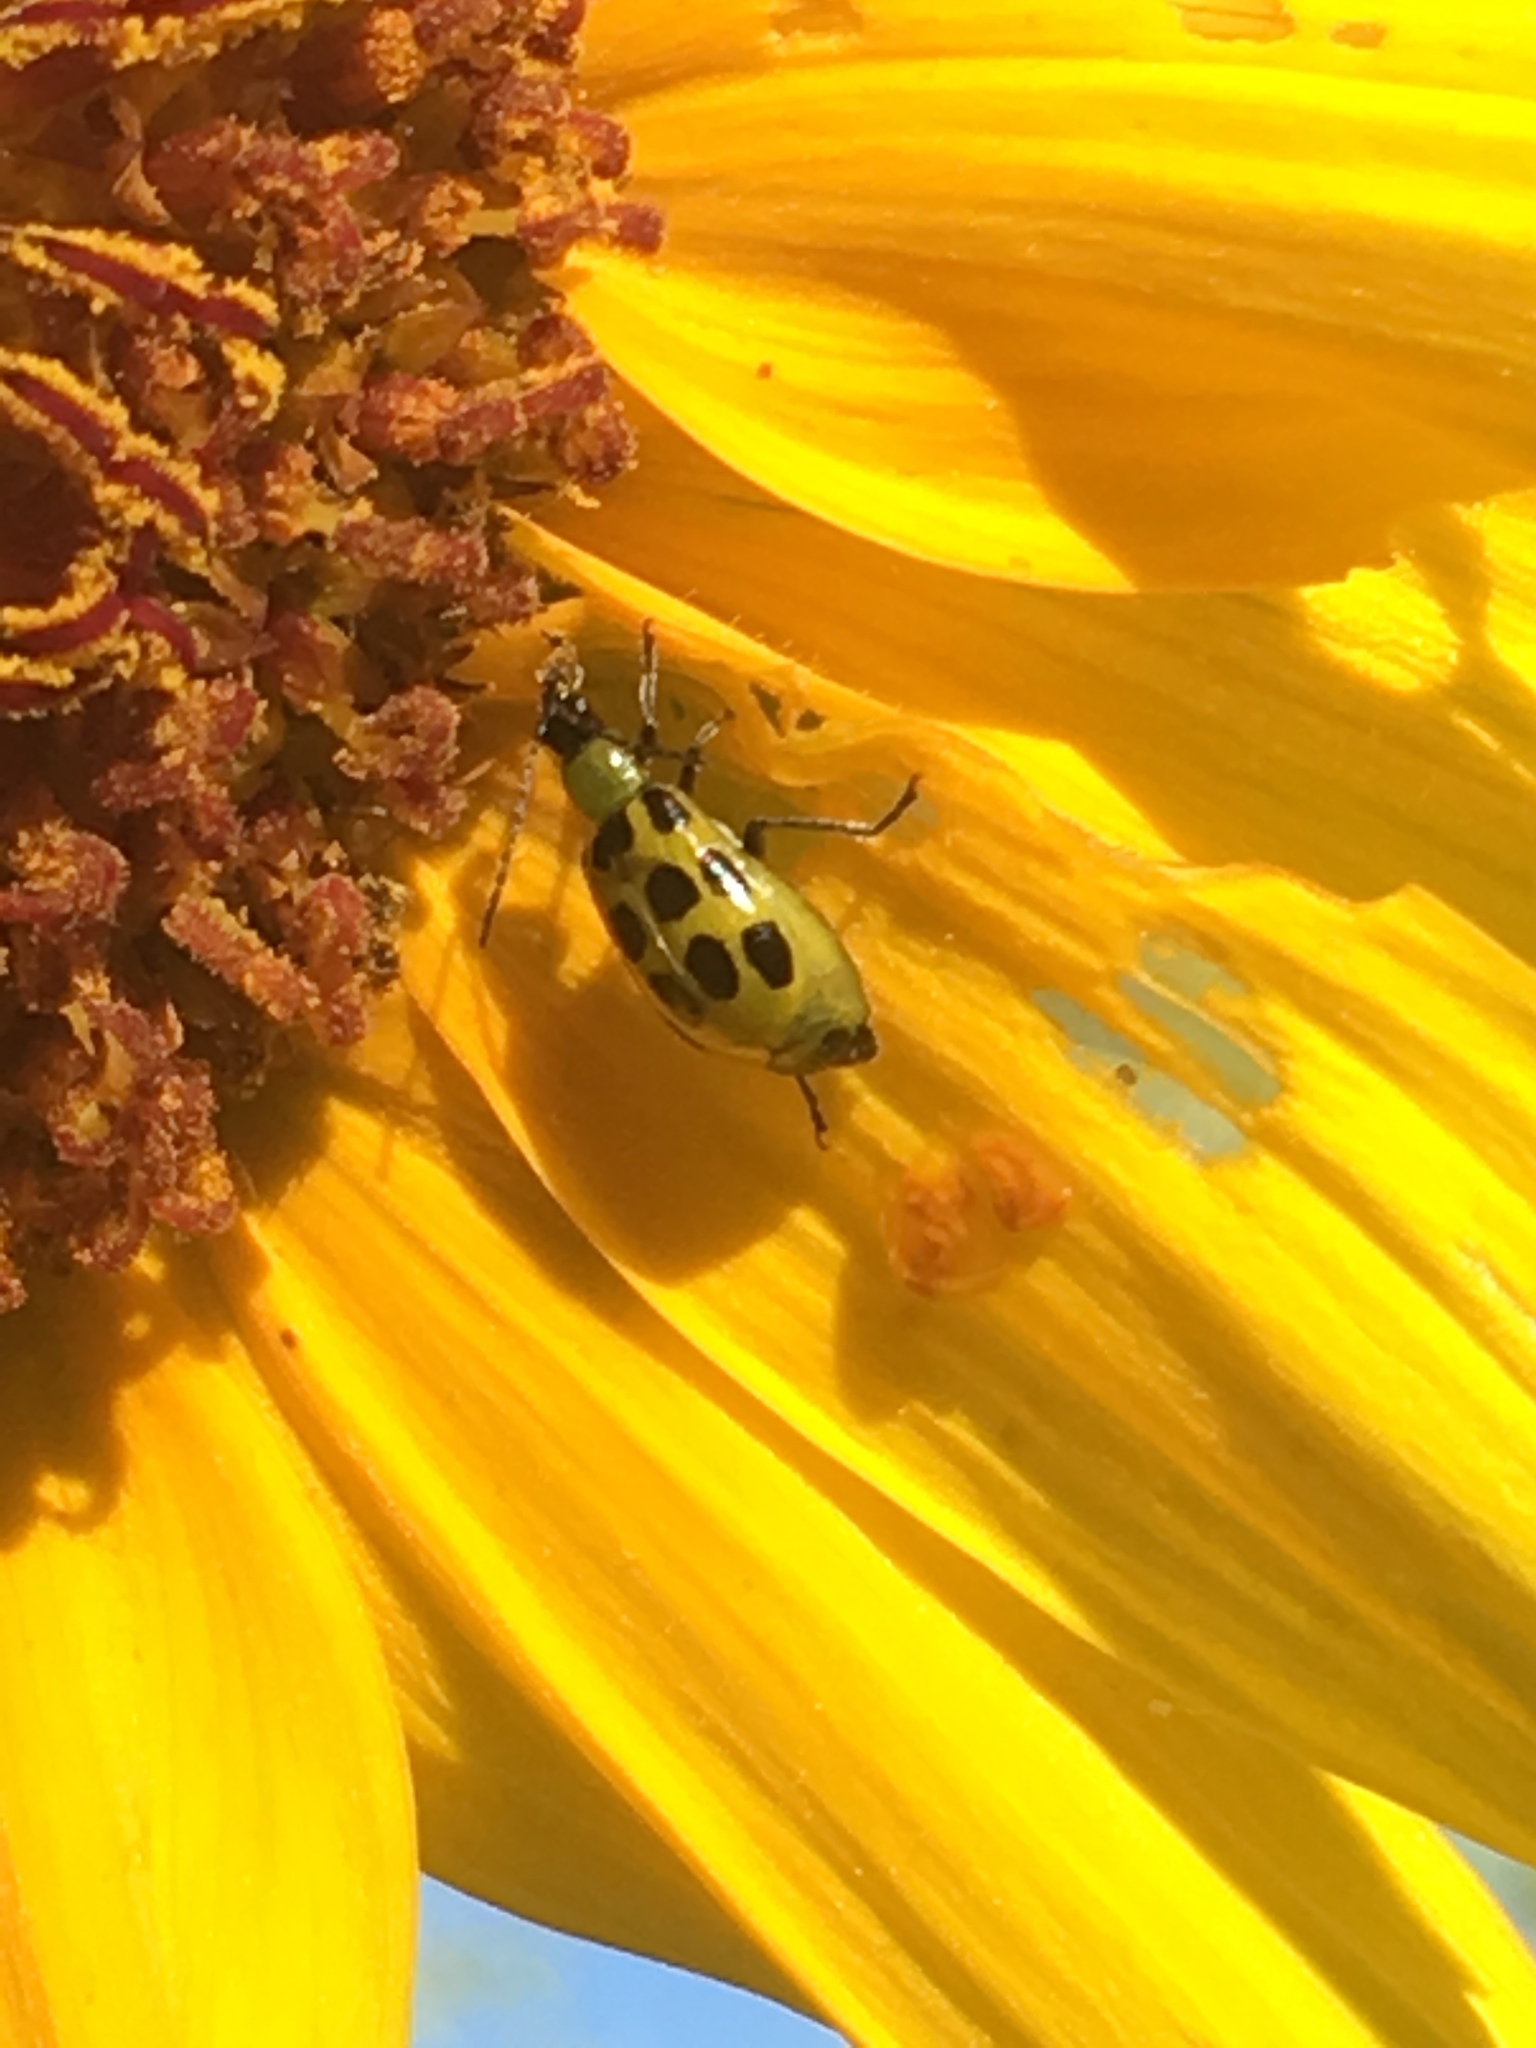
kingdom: Animalia
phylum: Arthropoda
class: Insecta
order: Coleoptera
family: Chrysomelidae
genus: Diabrotica
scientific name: Diabrotica undecimpunctata
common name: Spotted cucumber beetle
